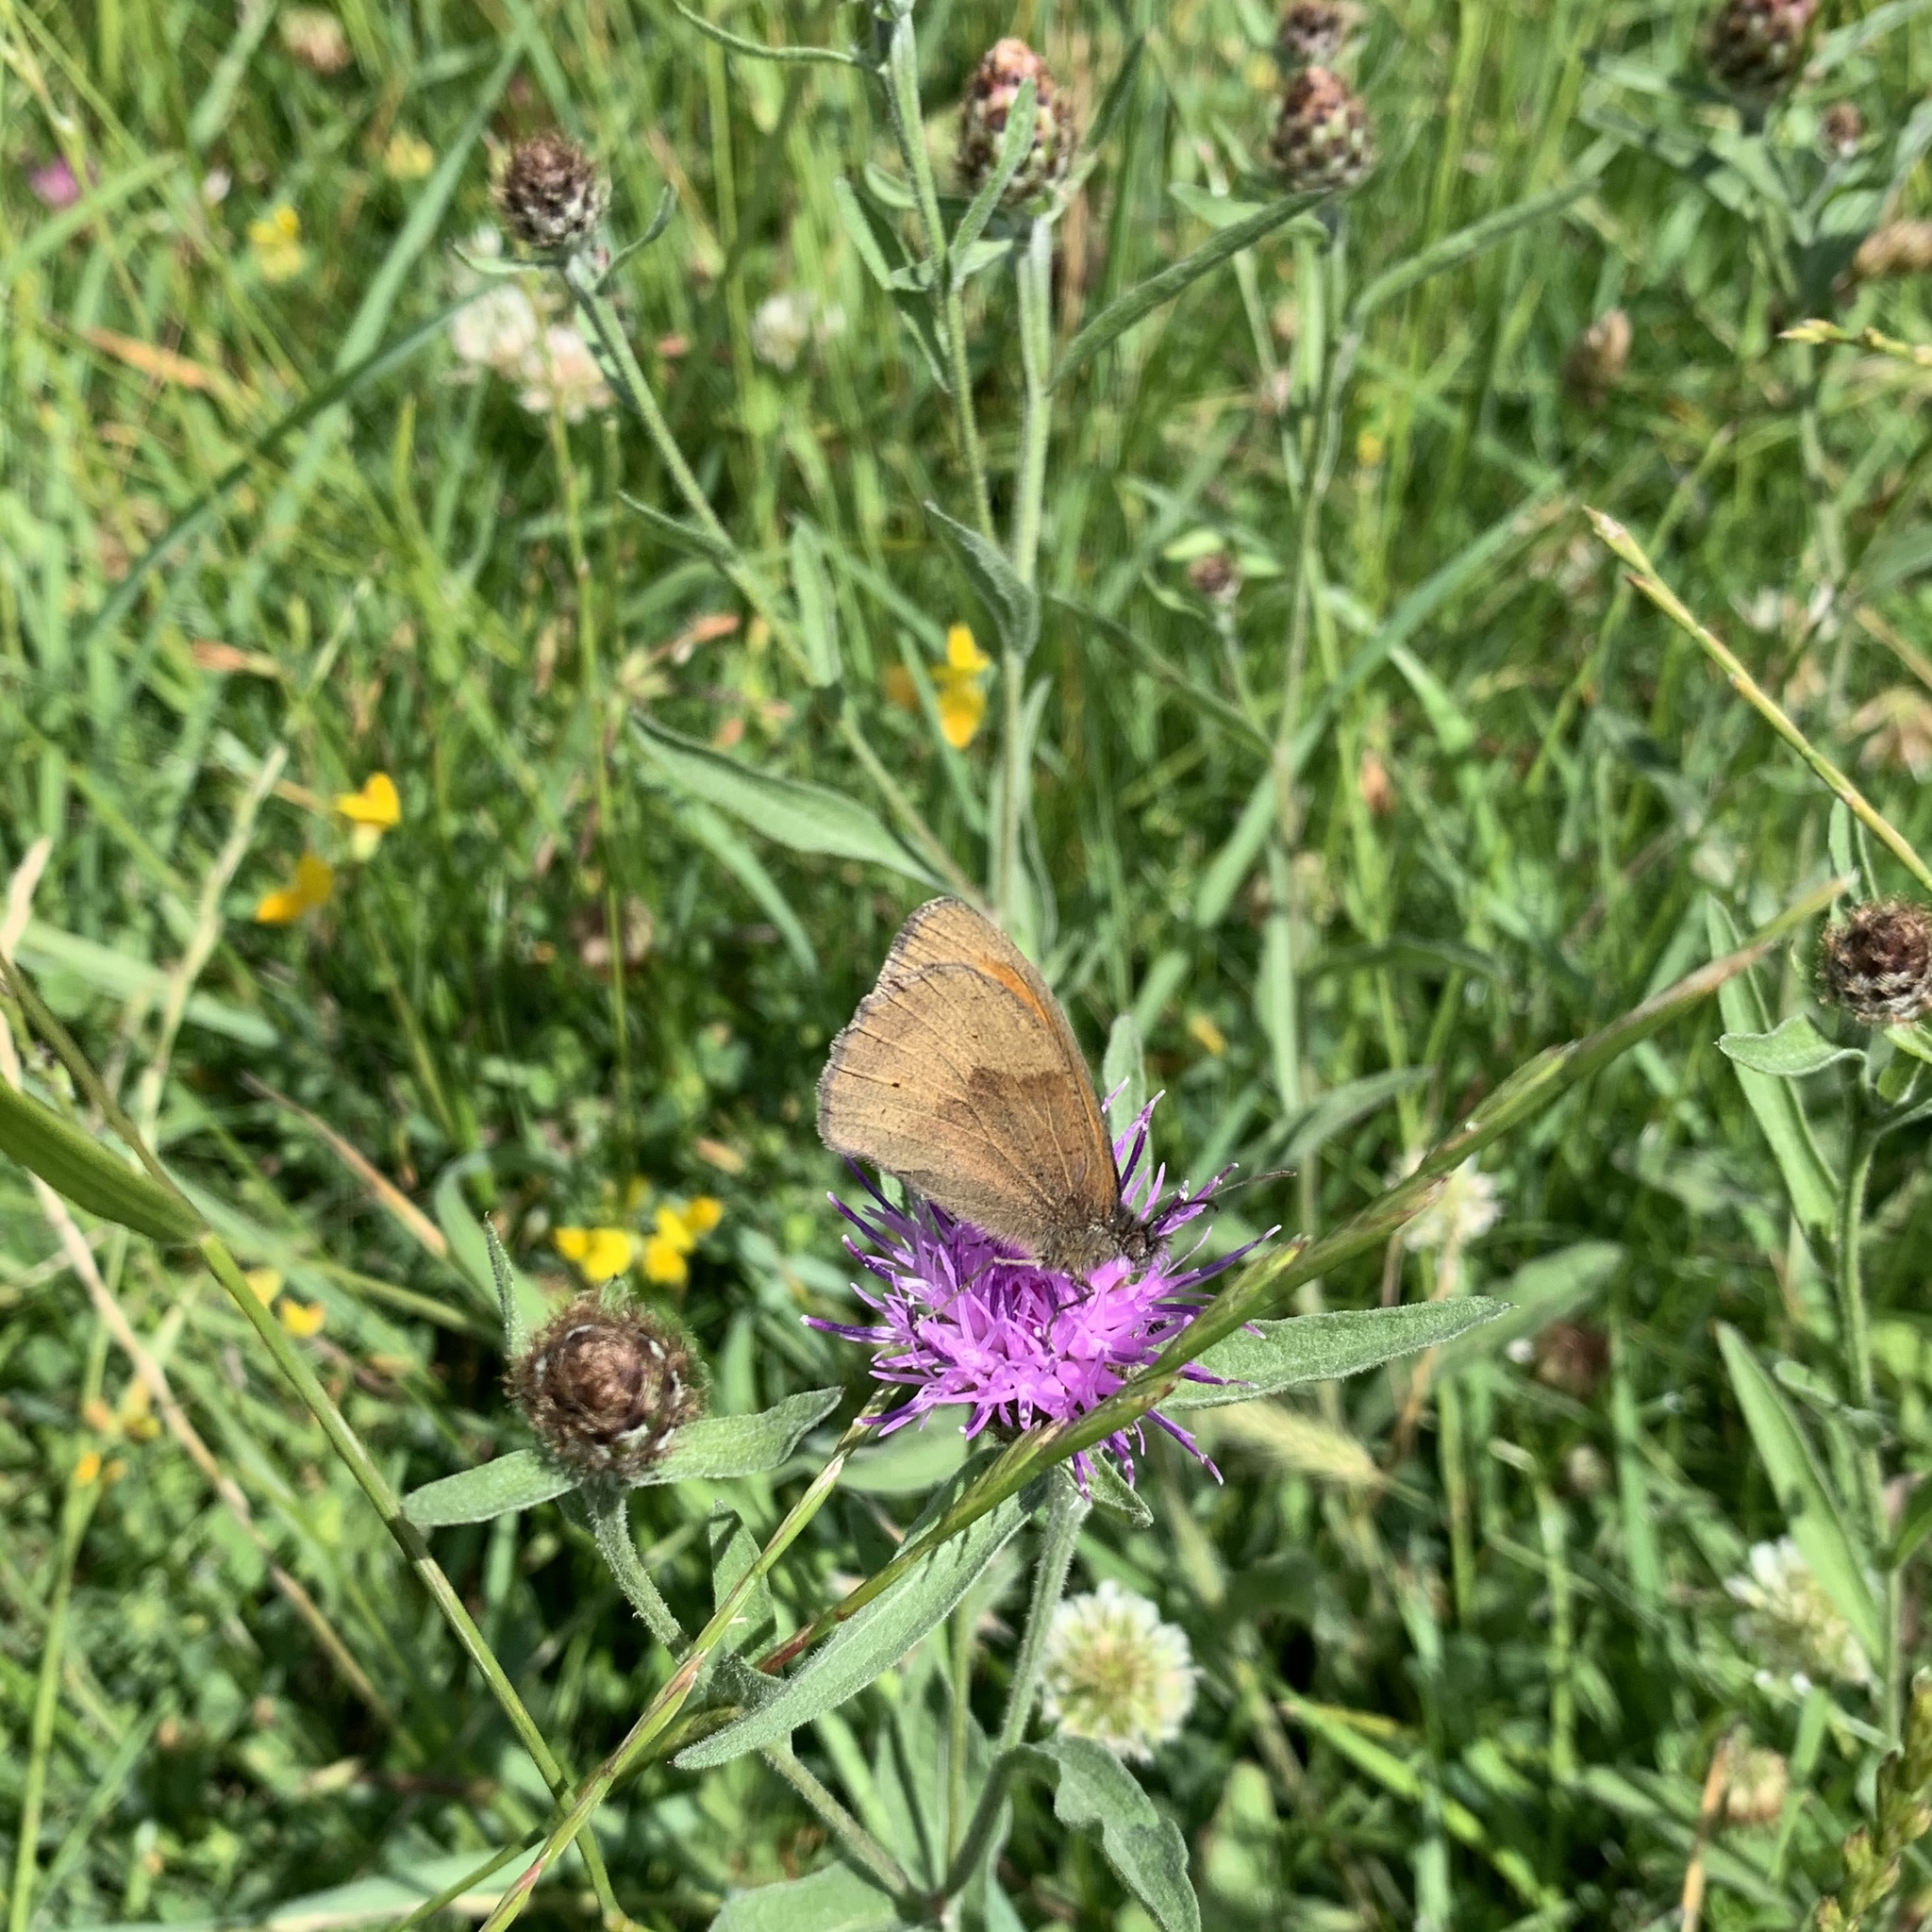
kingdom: Animalia
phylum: Arthropoda
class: Insecta
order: Lepidoptera
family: Nymphalidae
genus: Maniola
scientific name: Maniola jurtina
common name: Meadow brown
